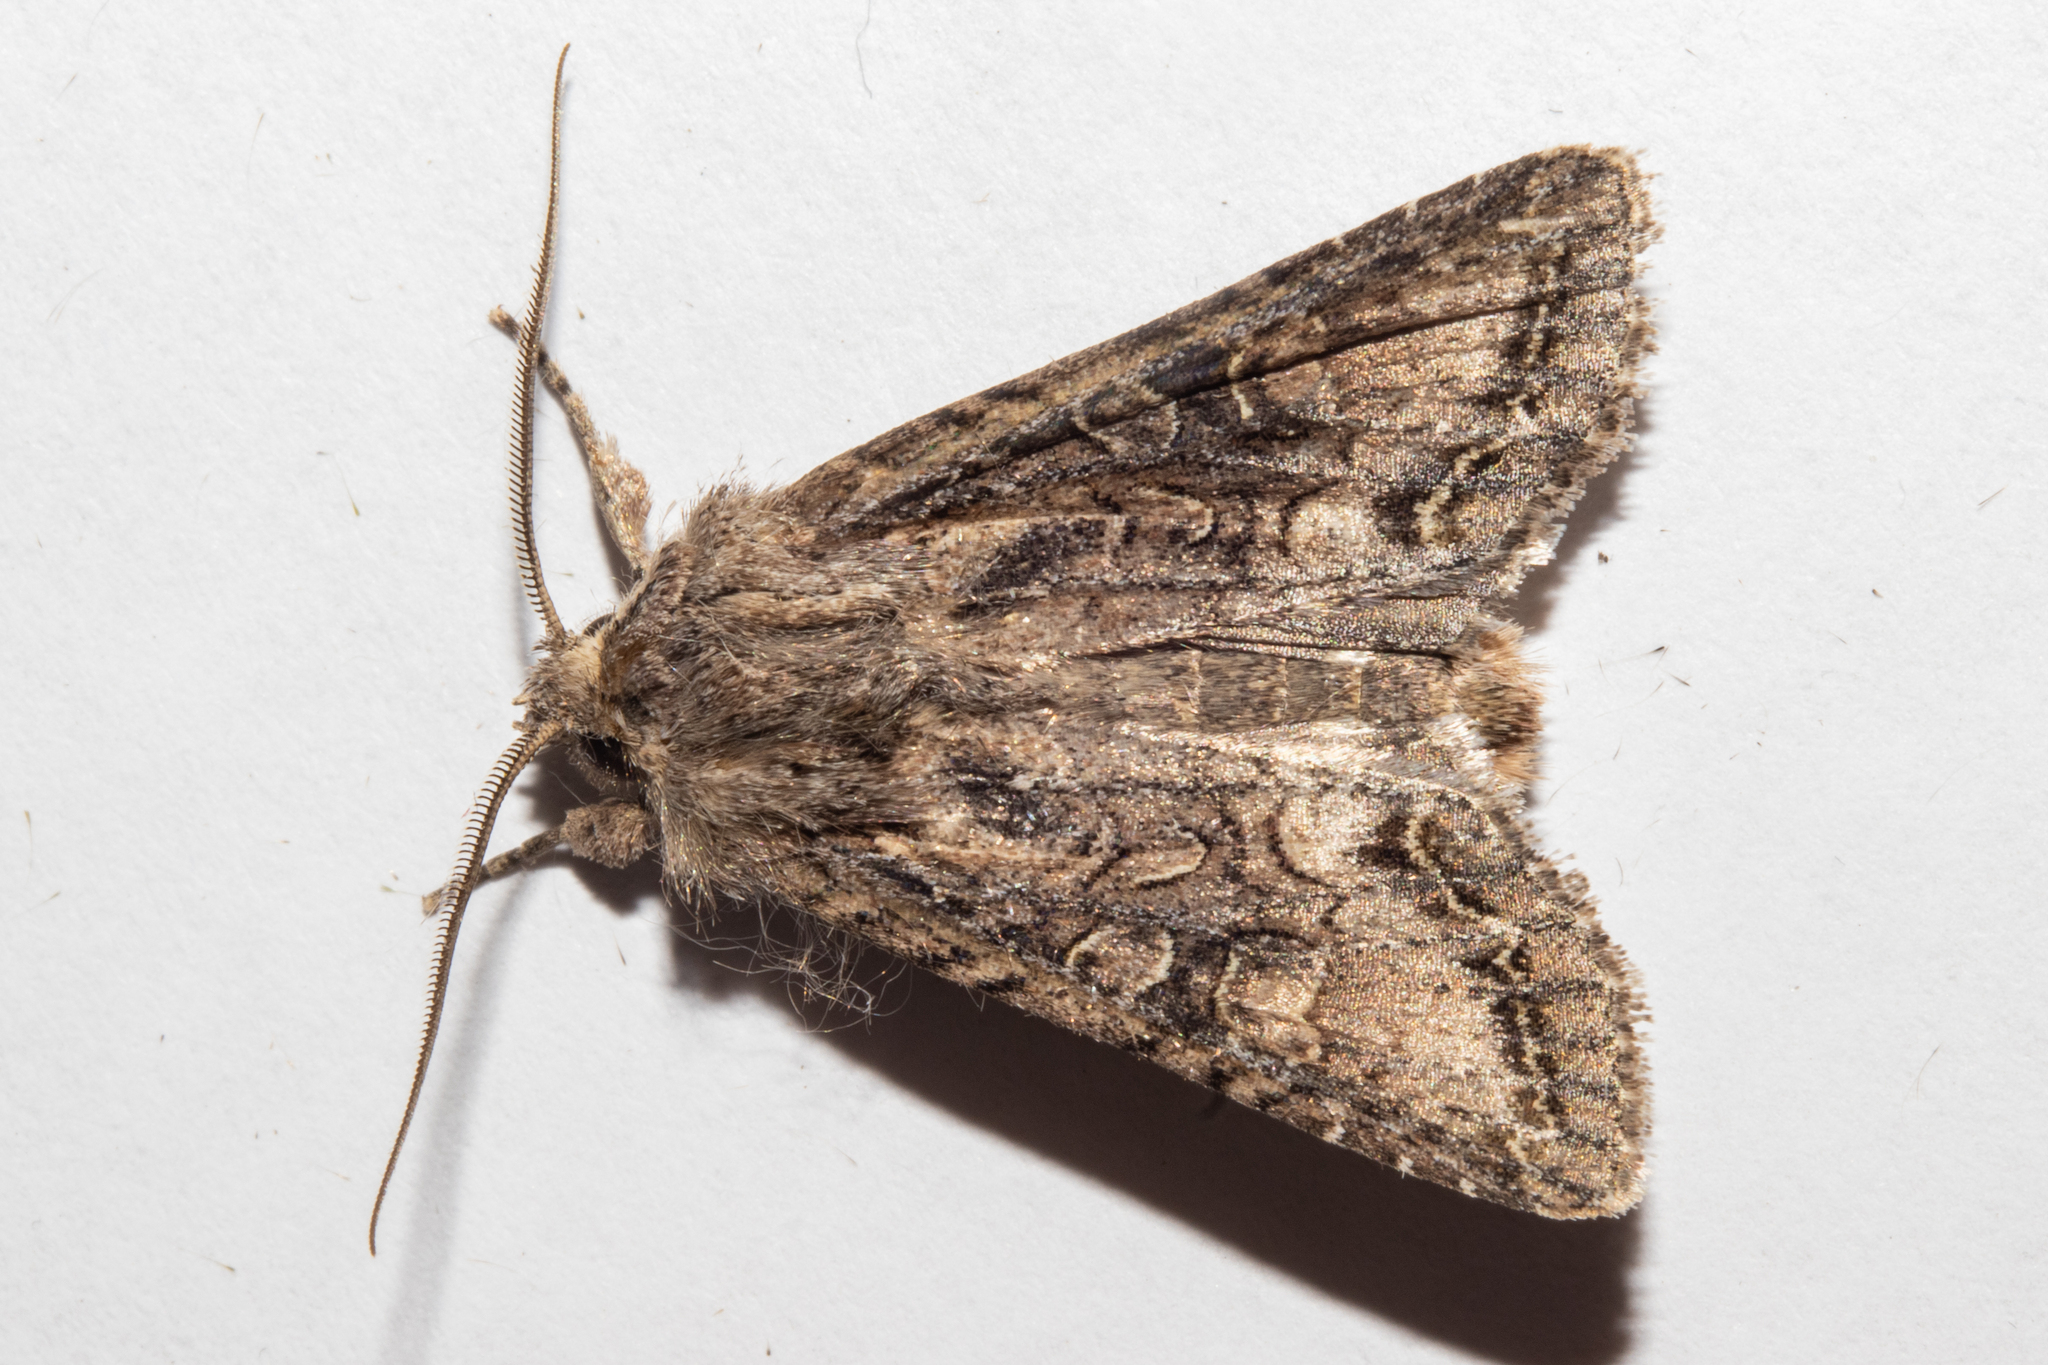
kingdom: Animalia
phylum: Arthropoda
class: Insecta
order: Lepidoptera
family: Noctuidae
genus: Ichneutica
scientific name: Ichneutica mutans
